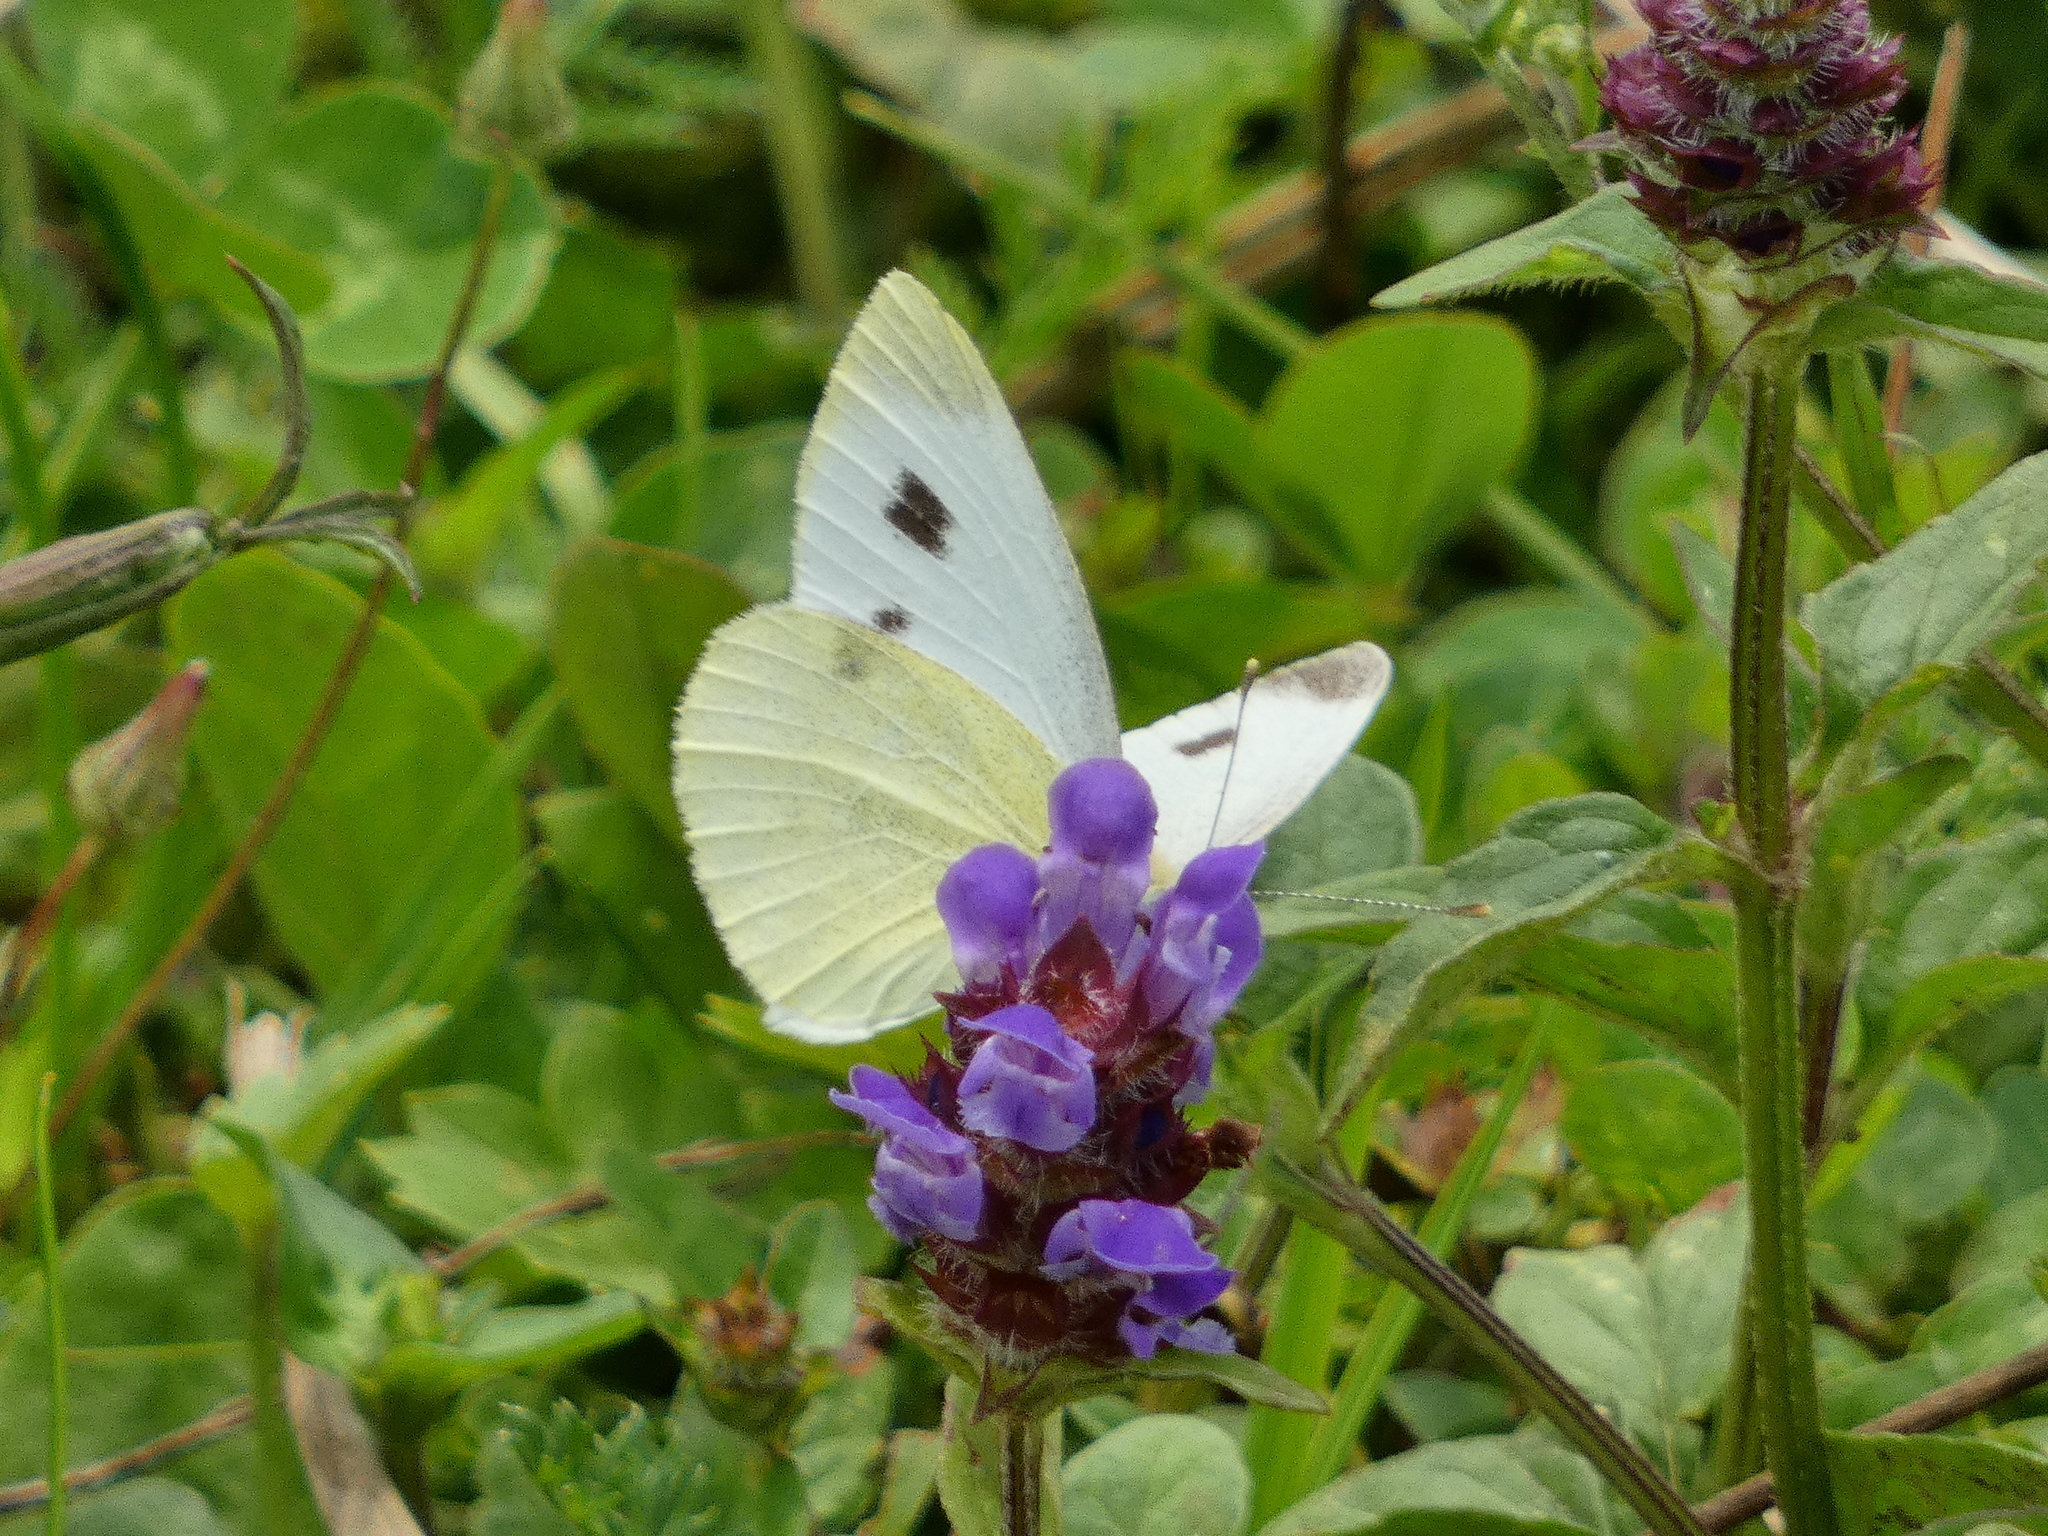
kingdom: Animalia
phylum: Arthropoda
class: Insecta
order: Lepidoptera
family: Pieridae
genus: Pieris
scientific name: Pieris rapae
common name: Small white
